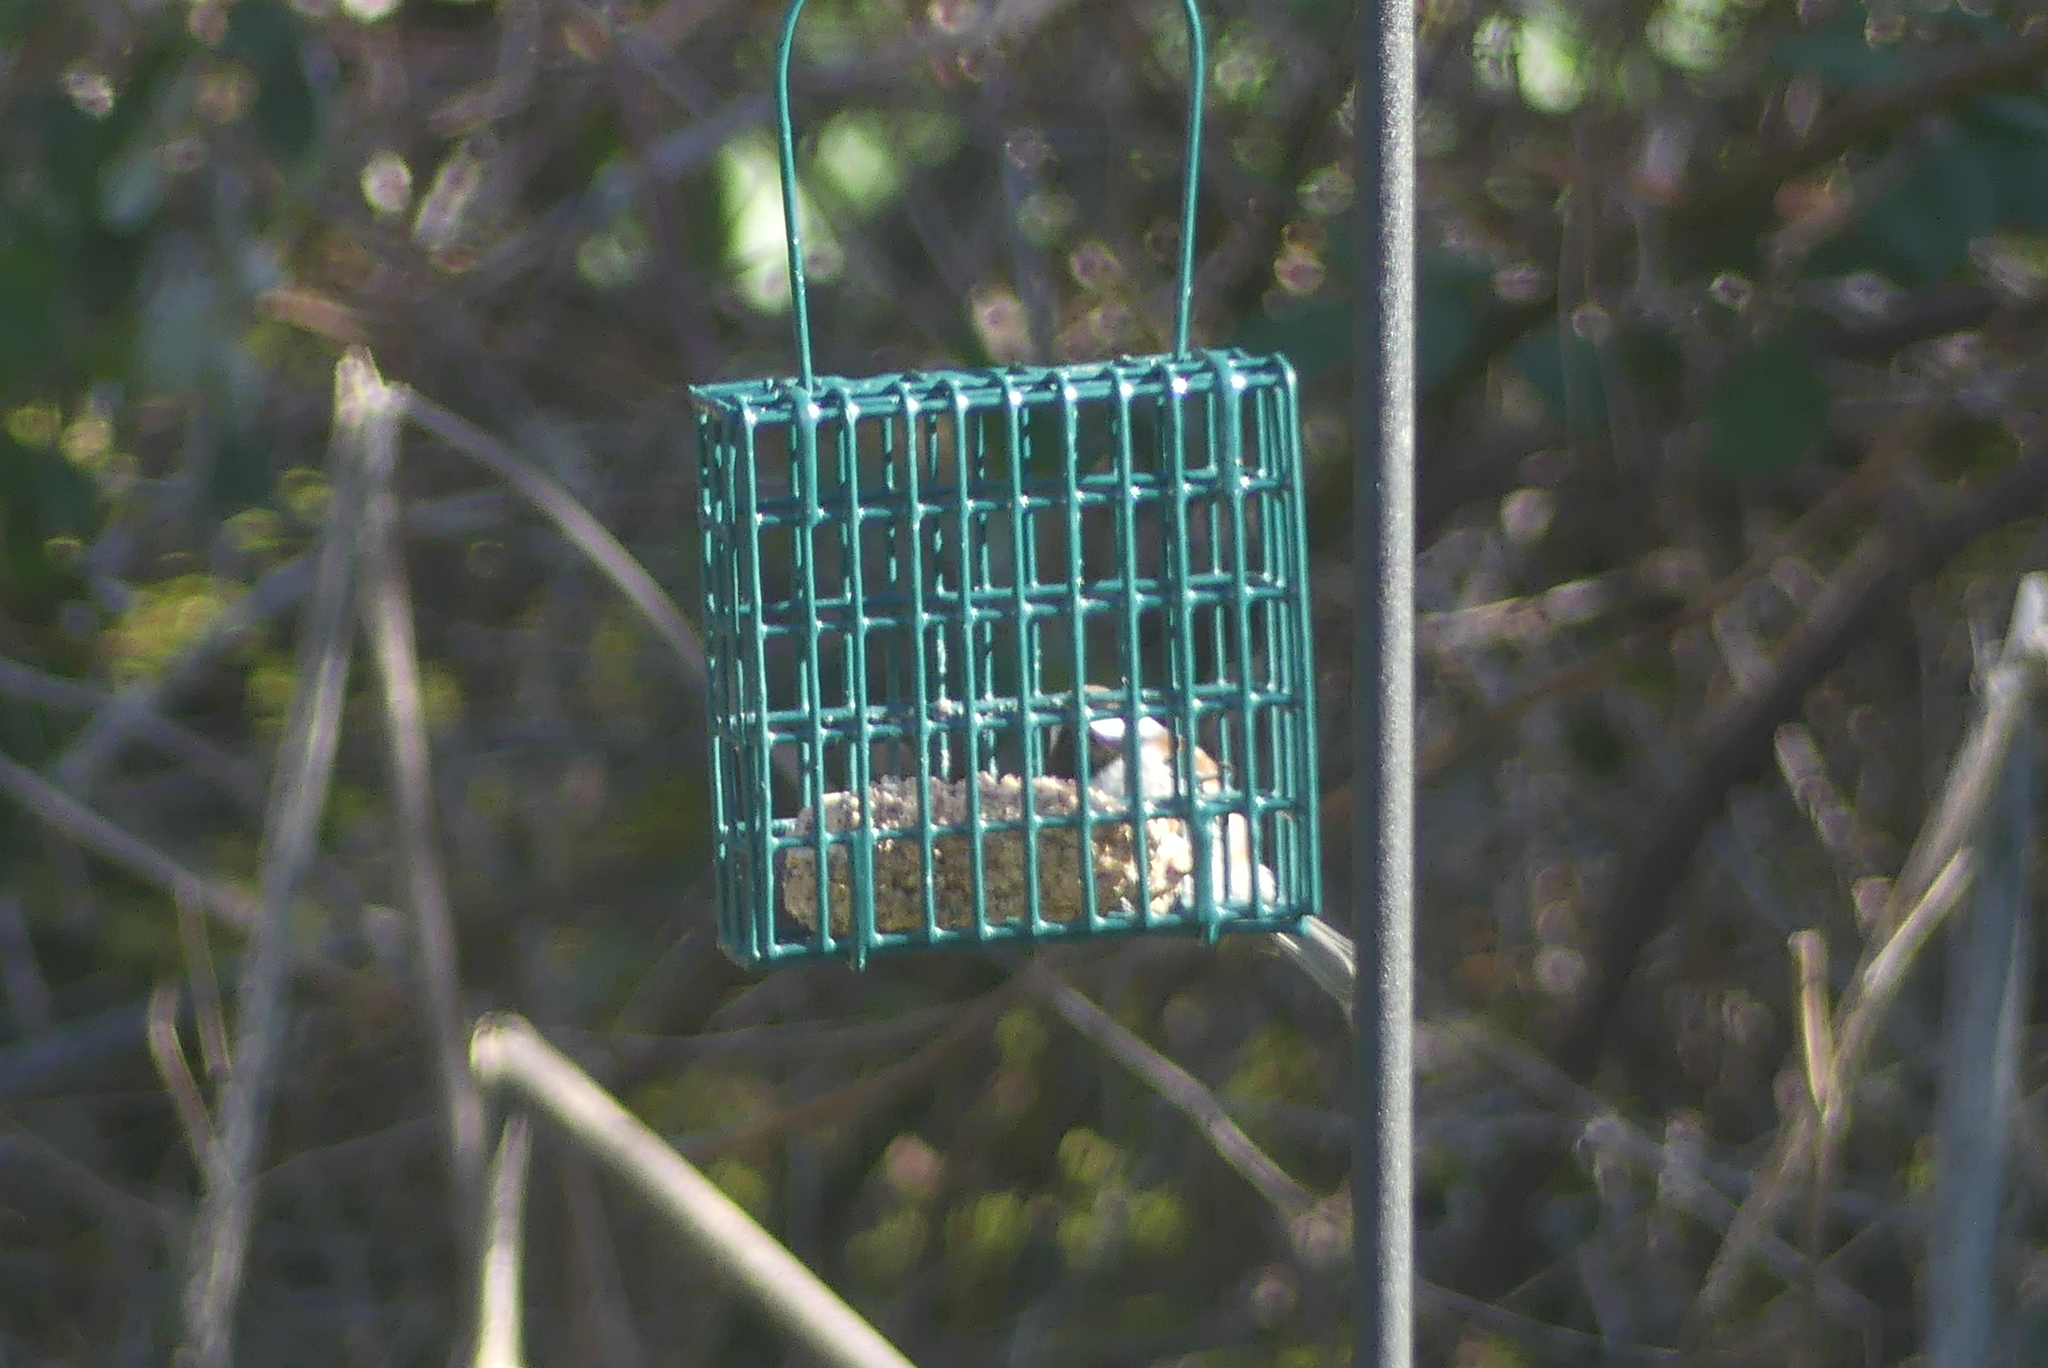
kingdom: Animalia
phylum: Chordata
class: Aves
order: Passeriformes
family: Paridae
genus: Poecile
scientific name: Poecile rufescens
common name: Chestnut-backed chickadee
